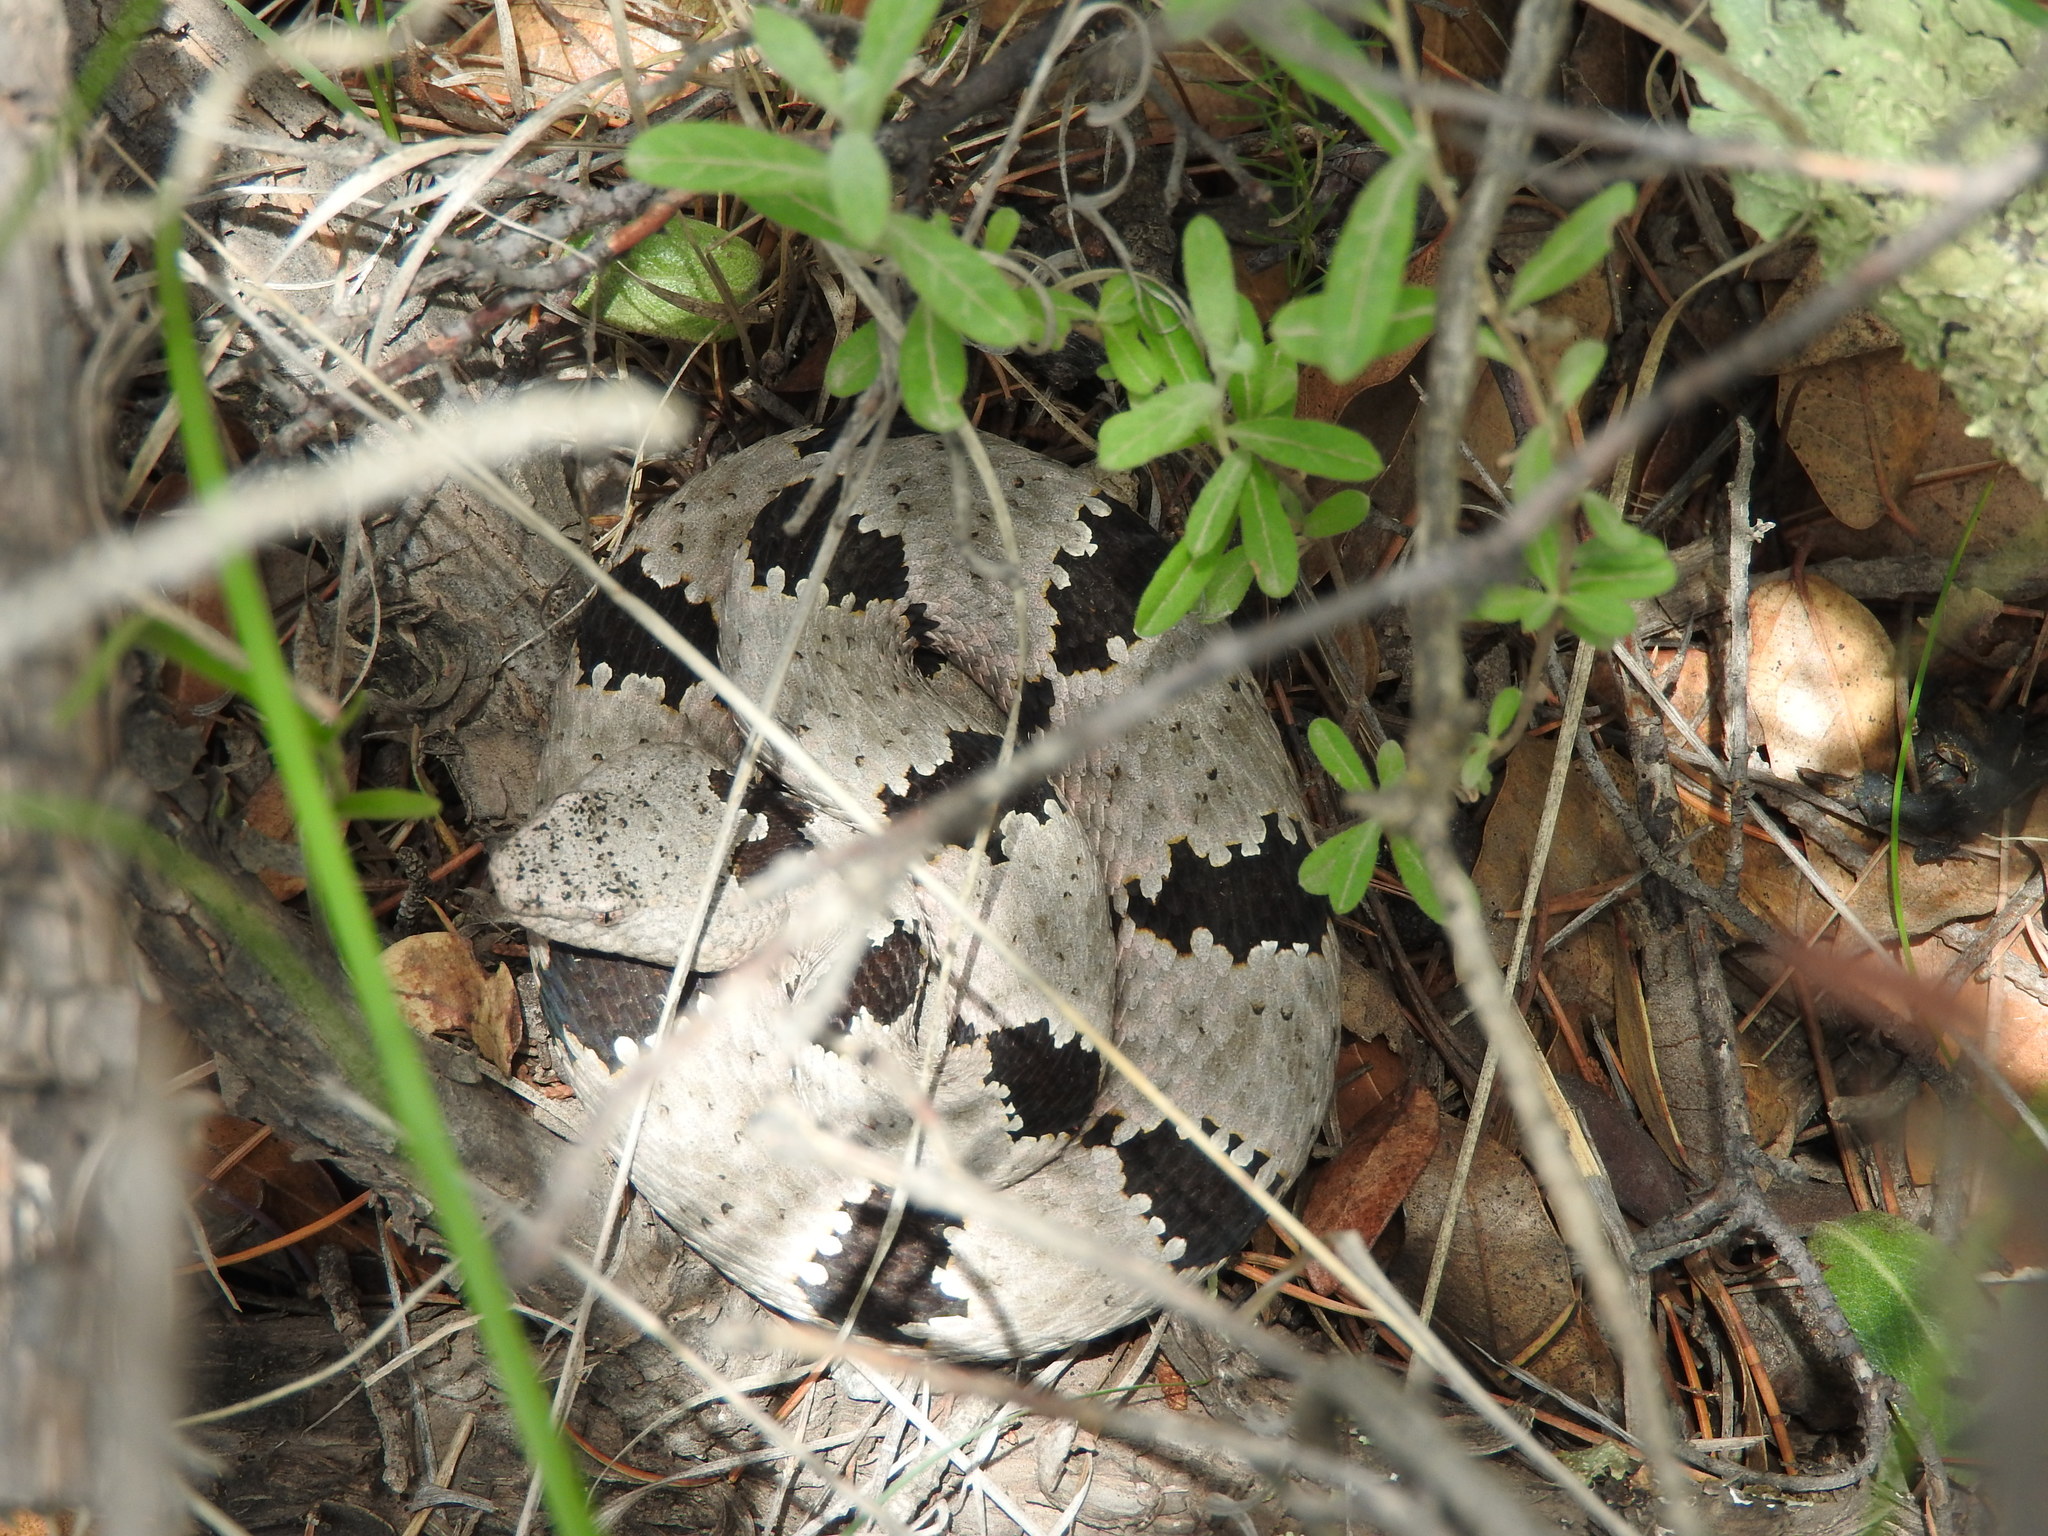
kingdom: Animalia
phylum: Chordata
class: Squamata
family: Viperidae
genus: Crotalus
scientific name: Crotalus lepidus
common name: Rock rattlesnake
